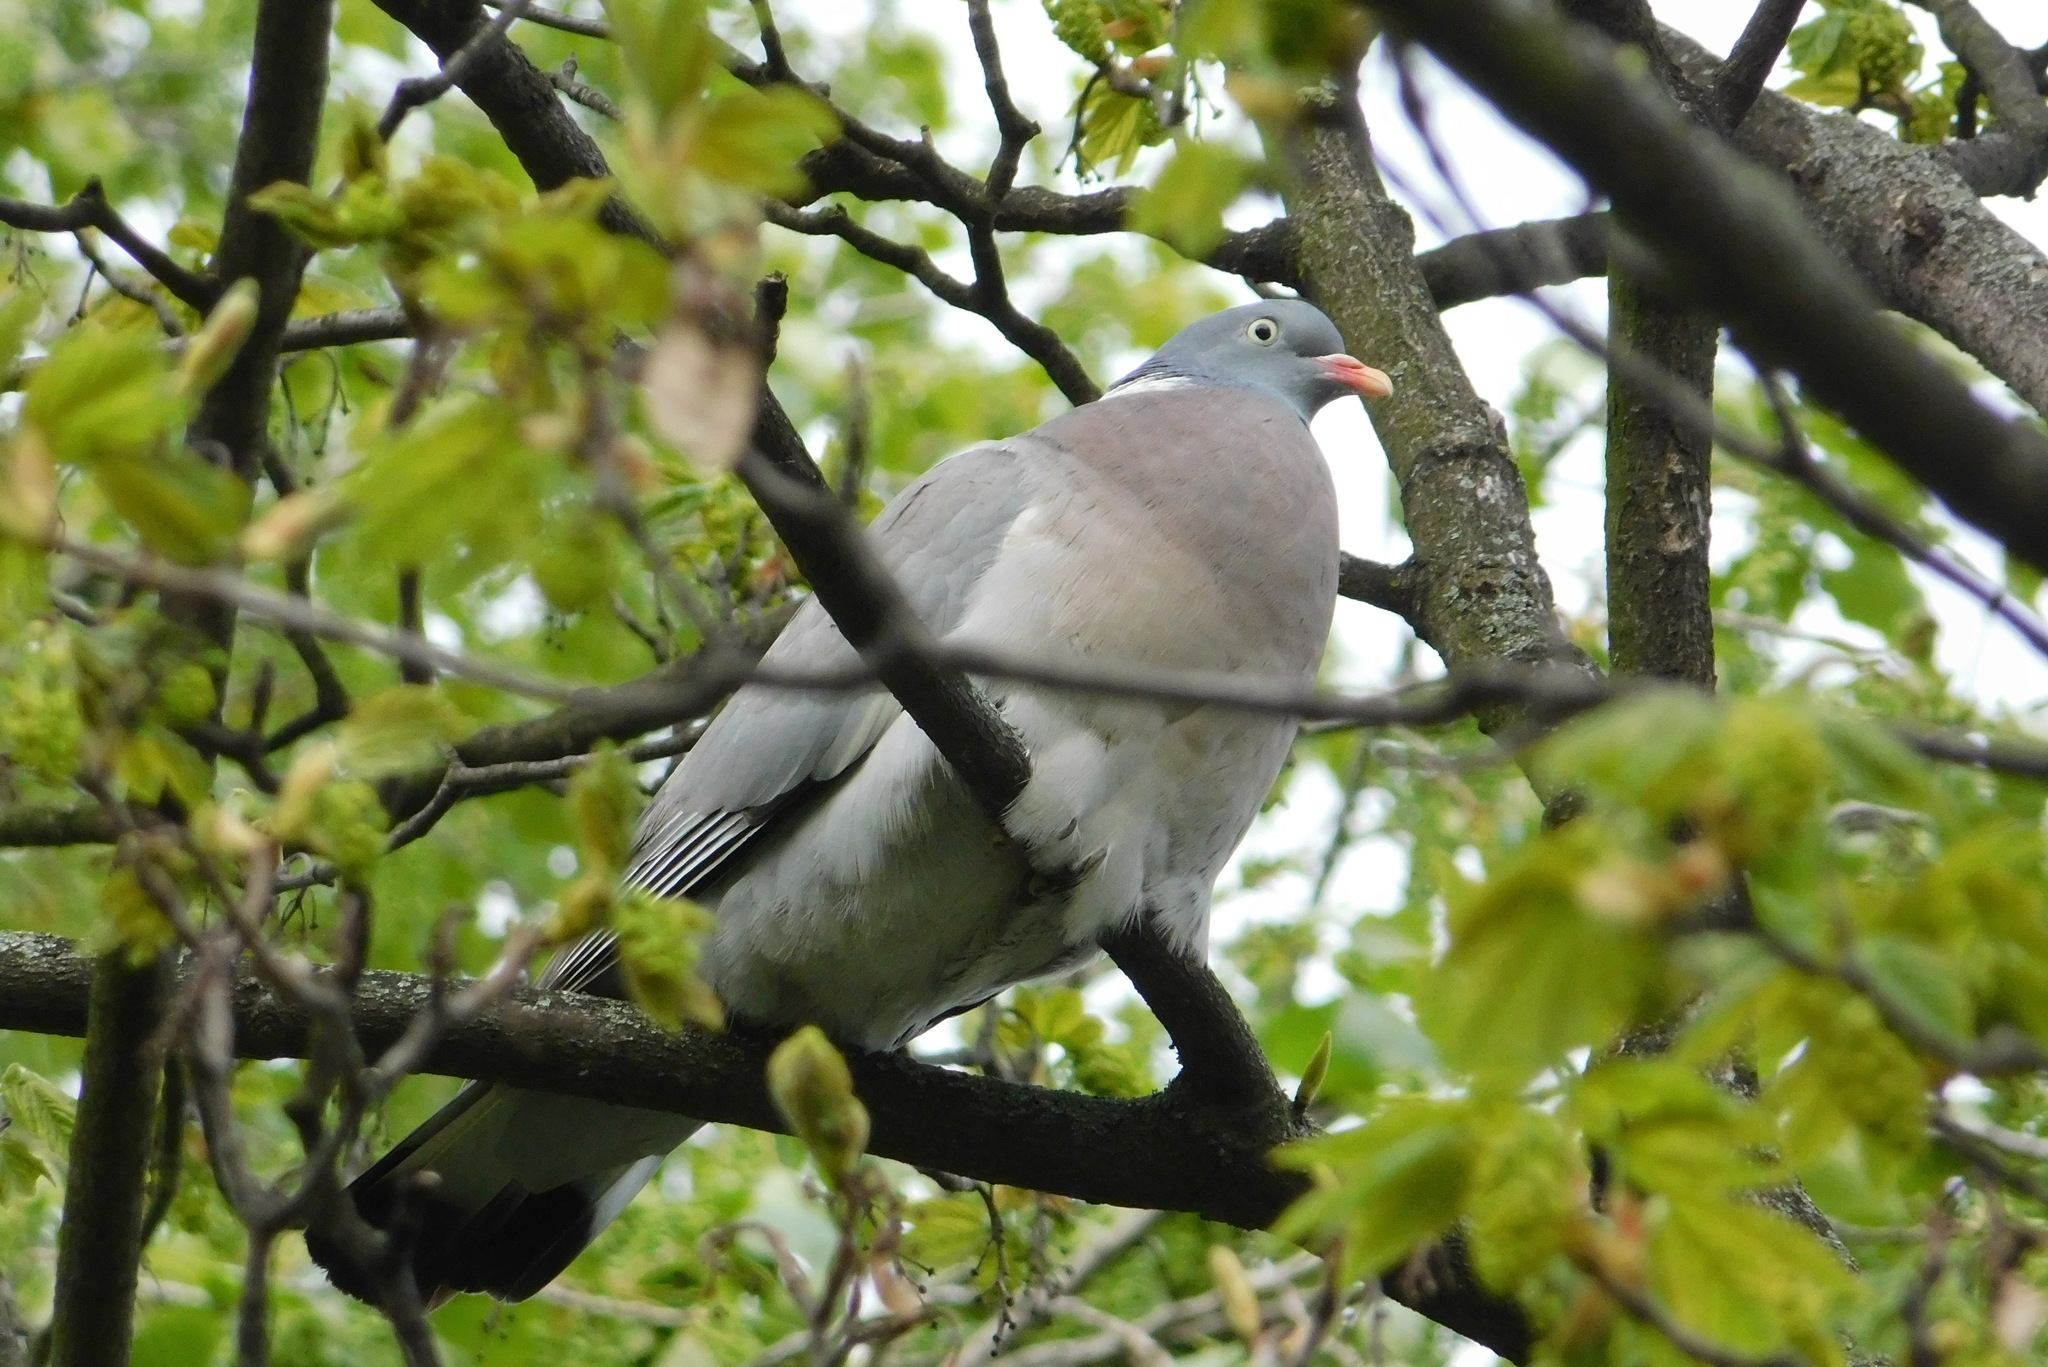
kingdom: Animalia
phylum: Chordata
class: Aves
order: Columbiformes
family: Columbidae
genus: Columba
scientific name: Columba palumbus
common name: Common wood pigeon
